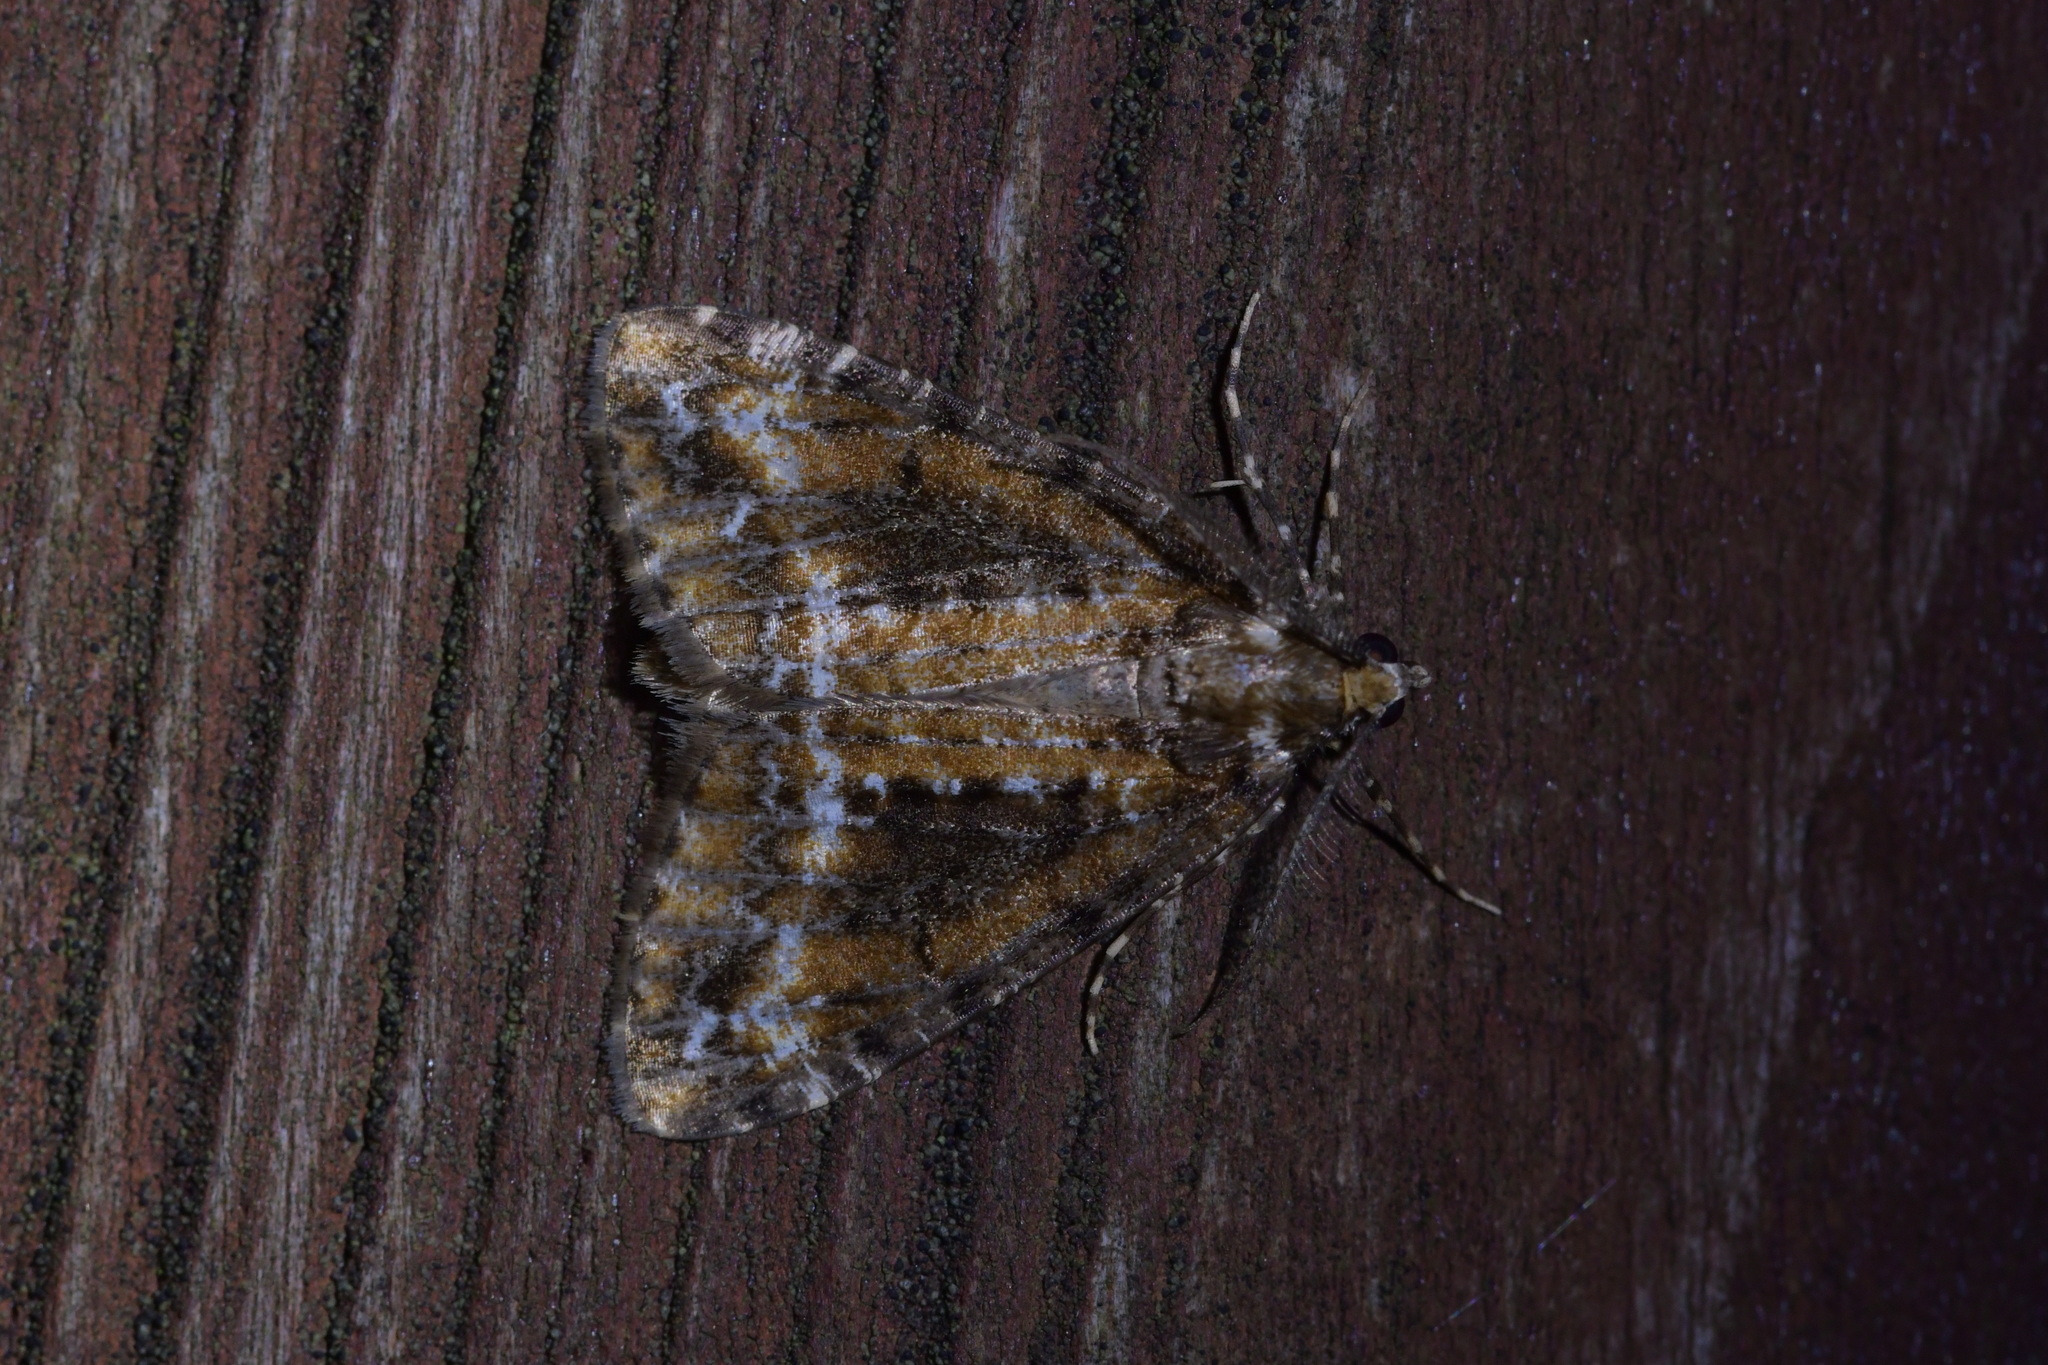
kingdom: Animalia
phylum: Arthropoda
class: Insecta
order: Lepidoptera
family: Geometridae
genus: Pseudocoremia
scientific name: Pseudocoremia leucelaea
